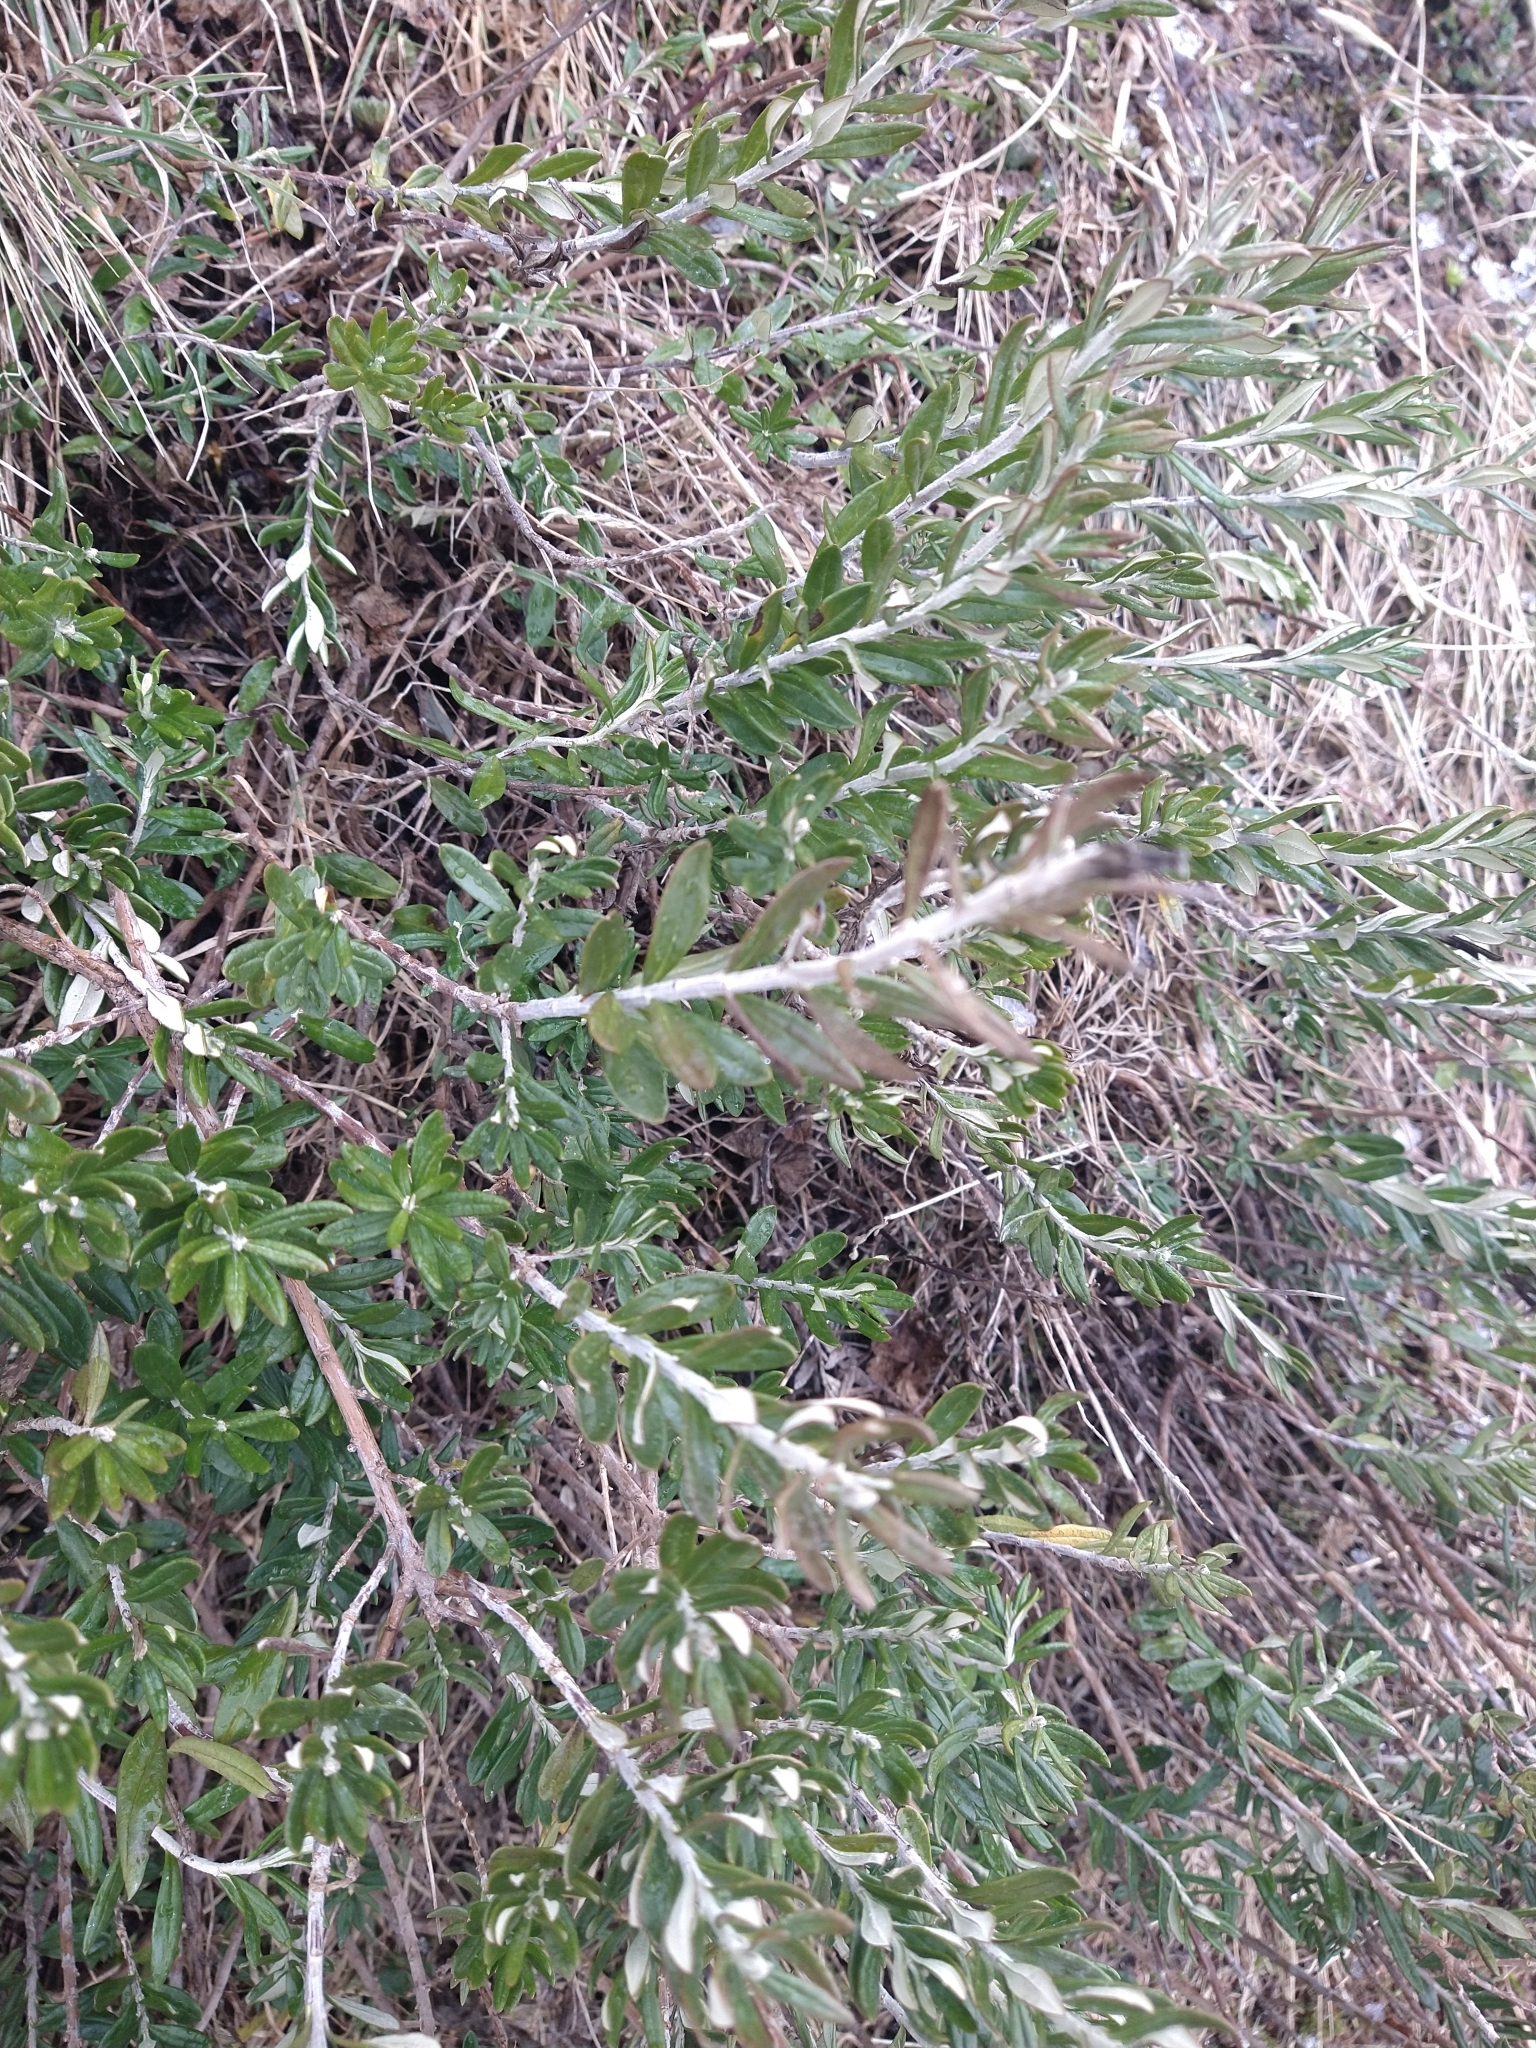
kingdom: Plantae
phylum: Tracheophyta
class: Magnoliopsida
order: Asterales
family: Asteraceae
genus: Chiliotrichum
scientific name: Chiliotrichum diffusum
